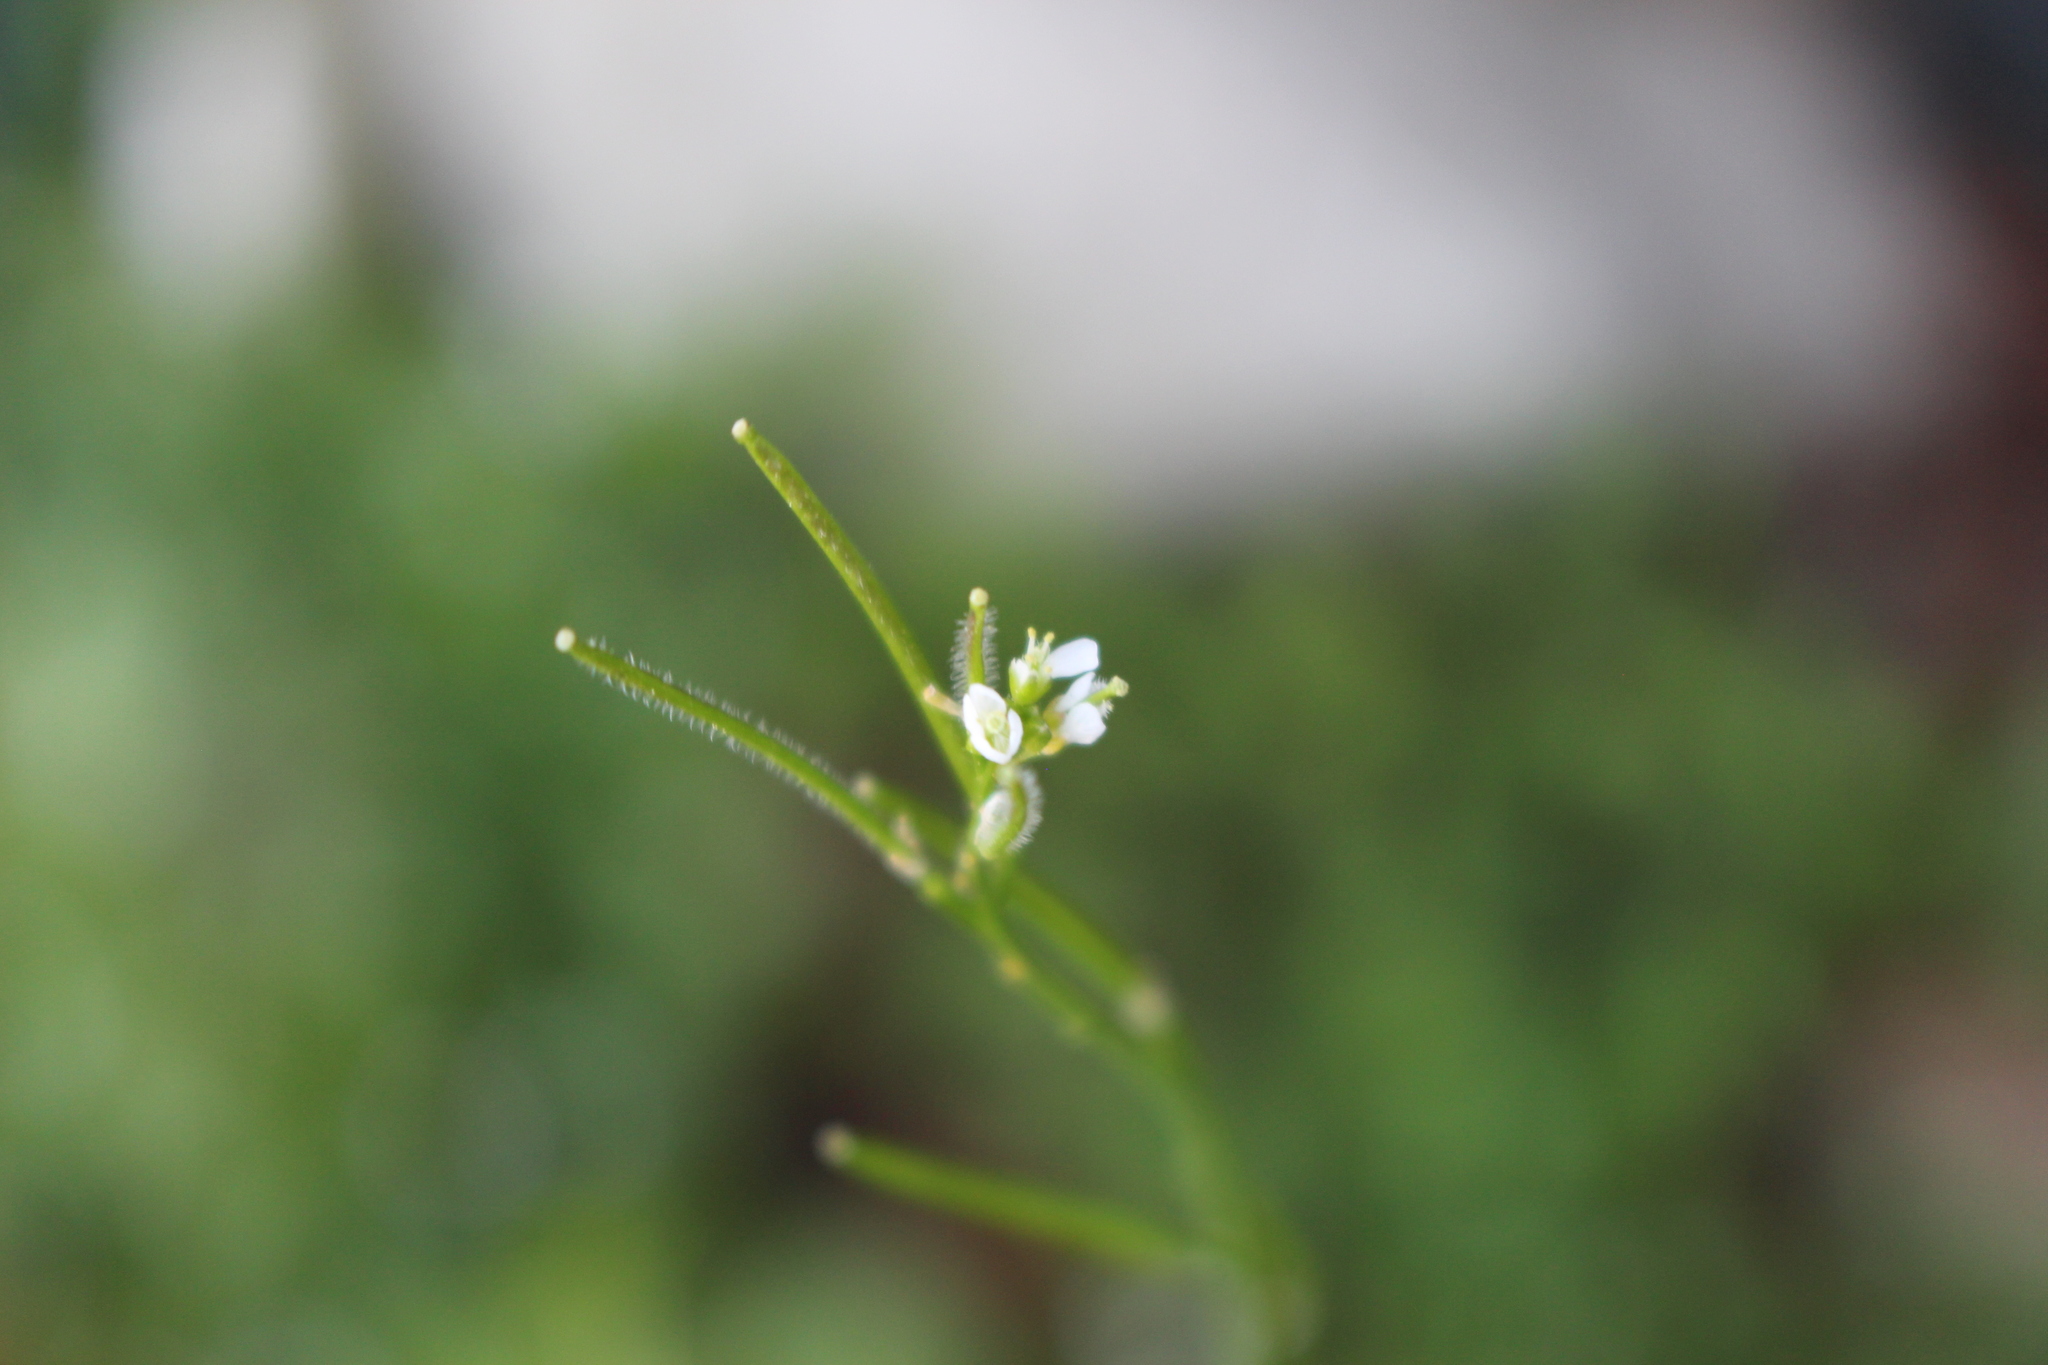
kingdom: Plantae
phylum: Tracheophyta
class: Magnoliopsida
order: Brassicales
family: Brassicaceae
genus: Cardamine
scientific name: Cardamine hirsuta
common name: Hairy bittercress
